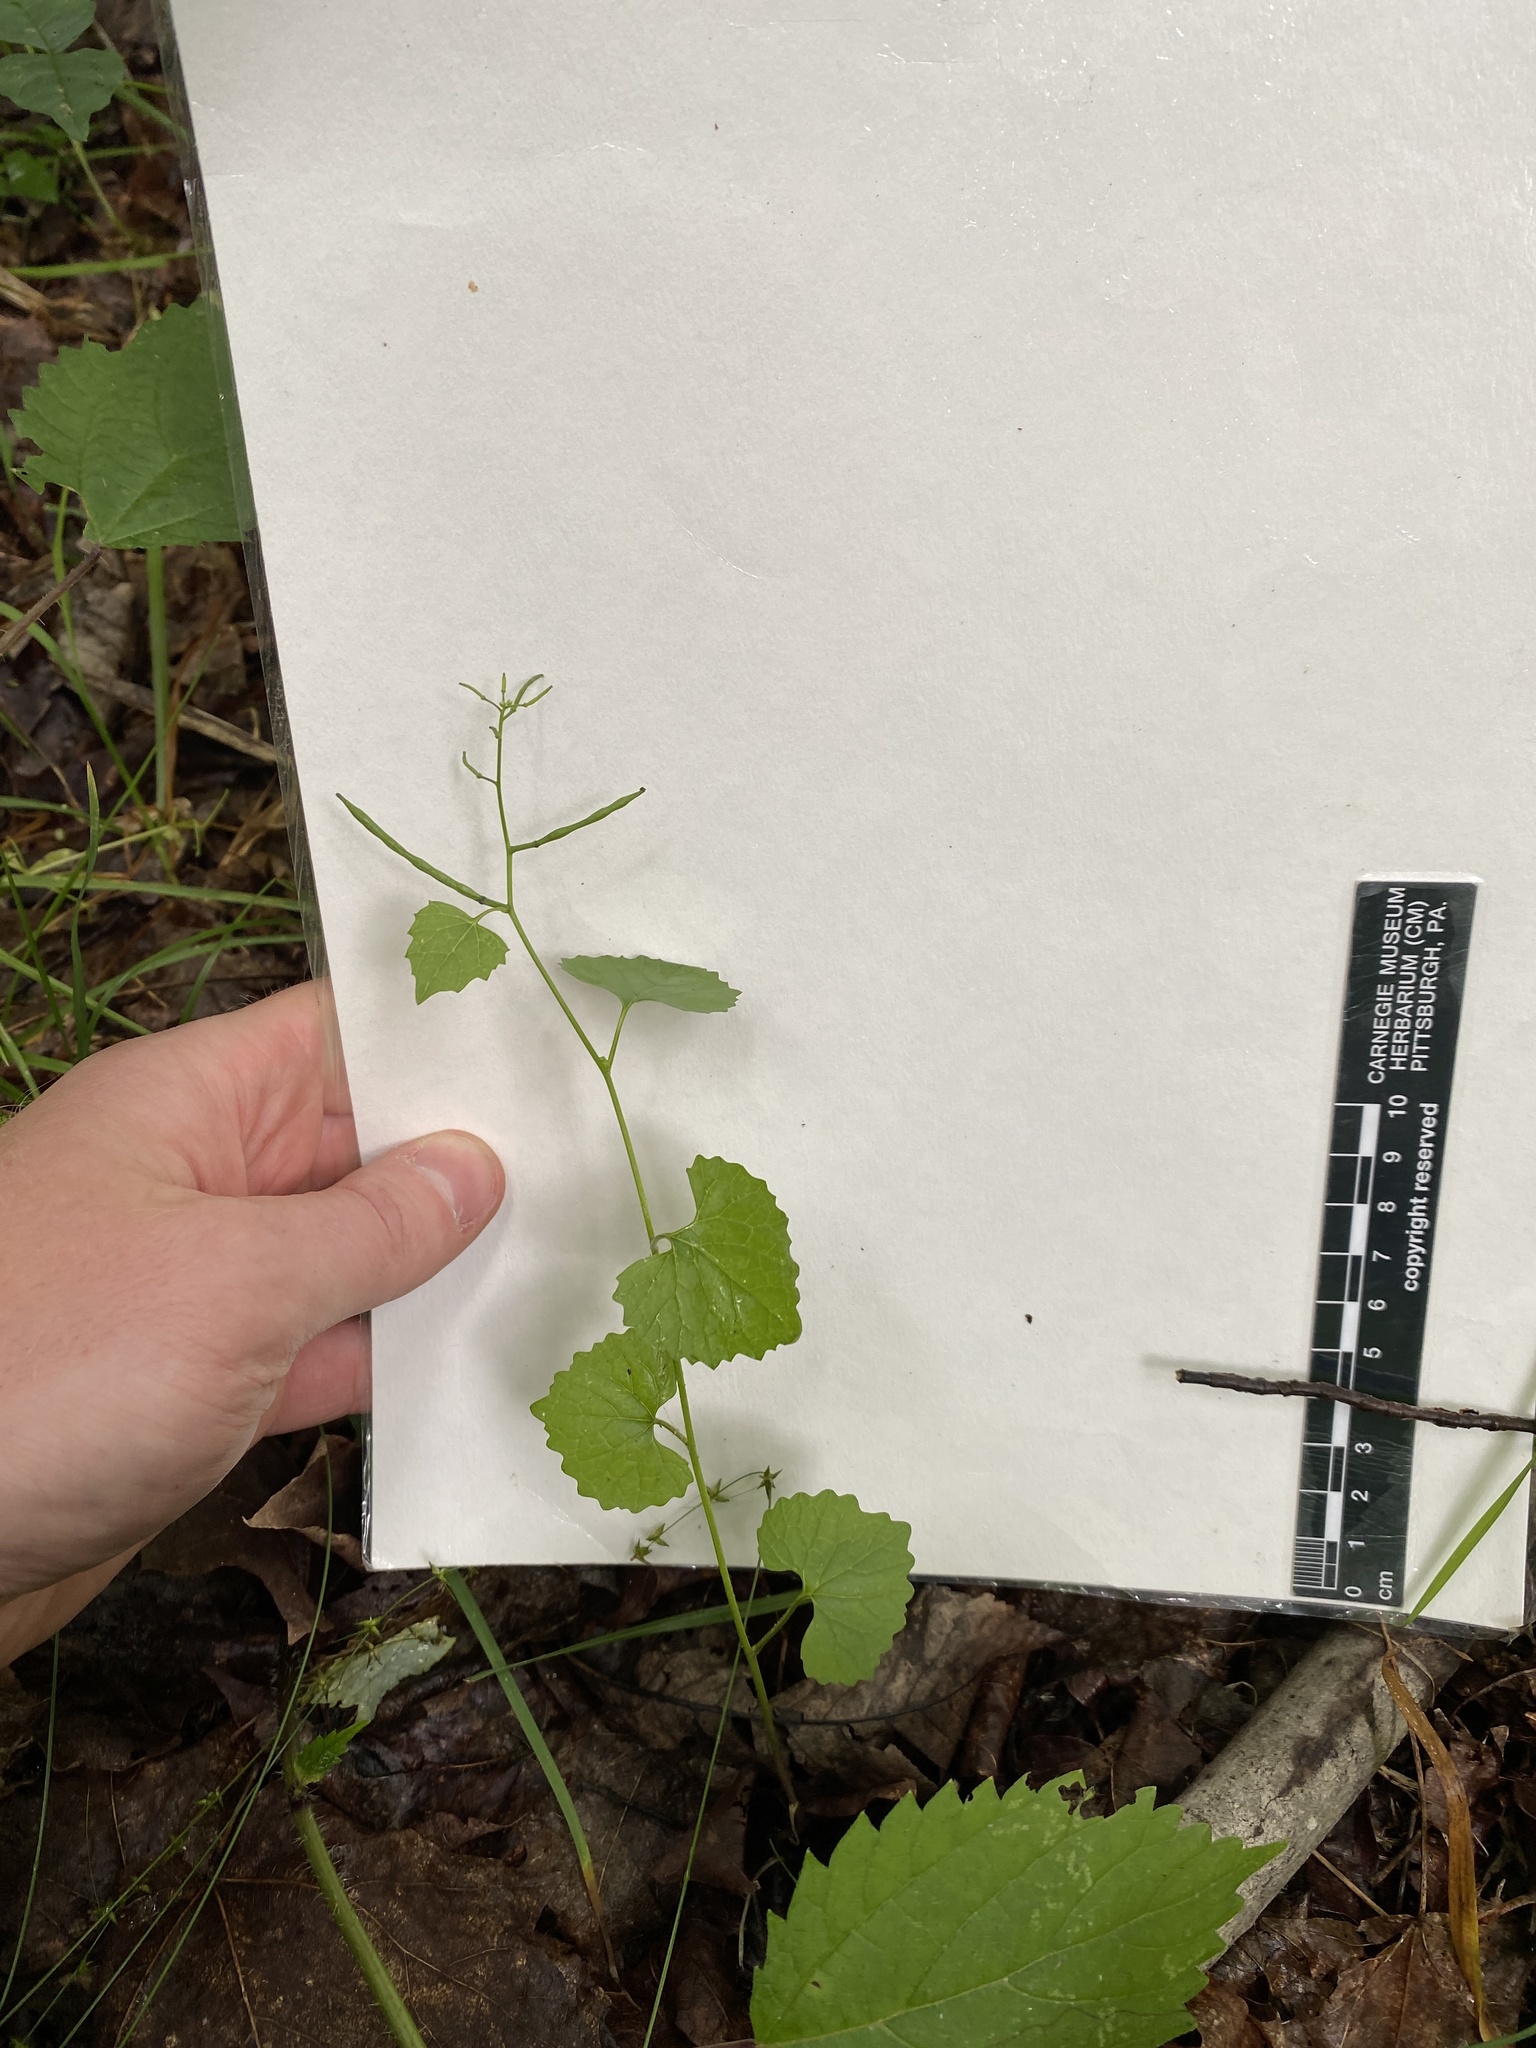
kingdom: Plantae
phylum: Tracheophyta
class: Magnoliopsida
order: Brassicales
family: Brassicaceae
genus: Alliaria
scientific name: Alliaria petiolata
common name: Garlic mustard
